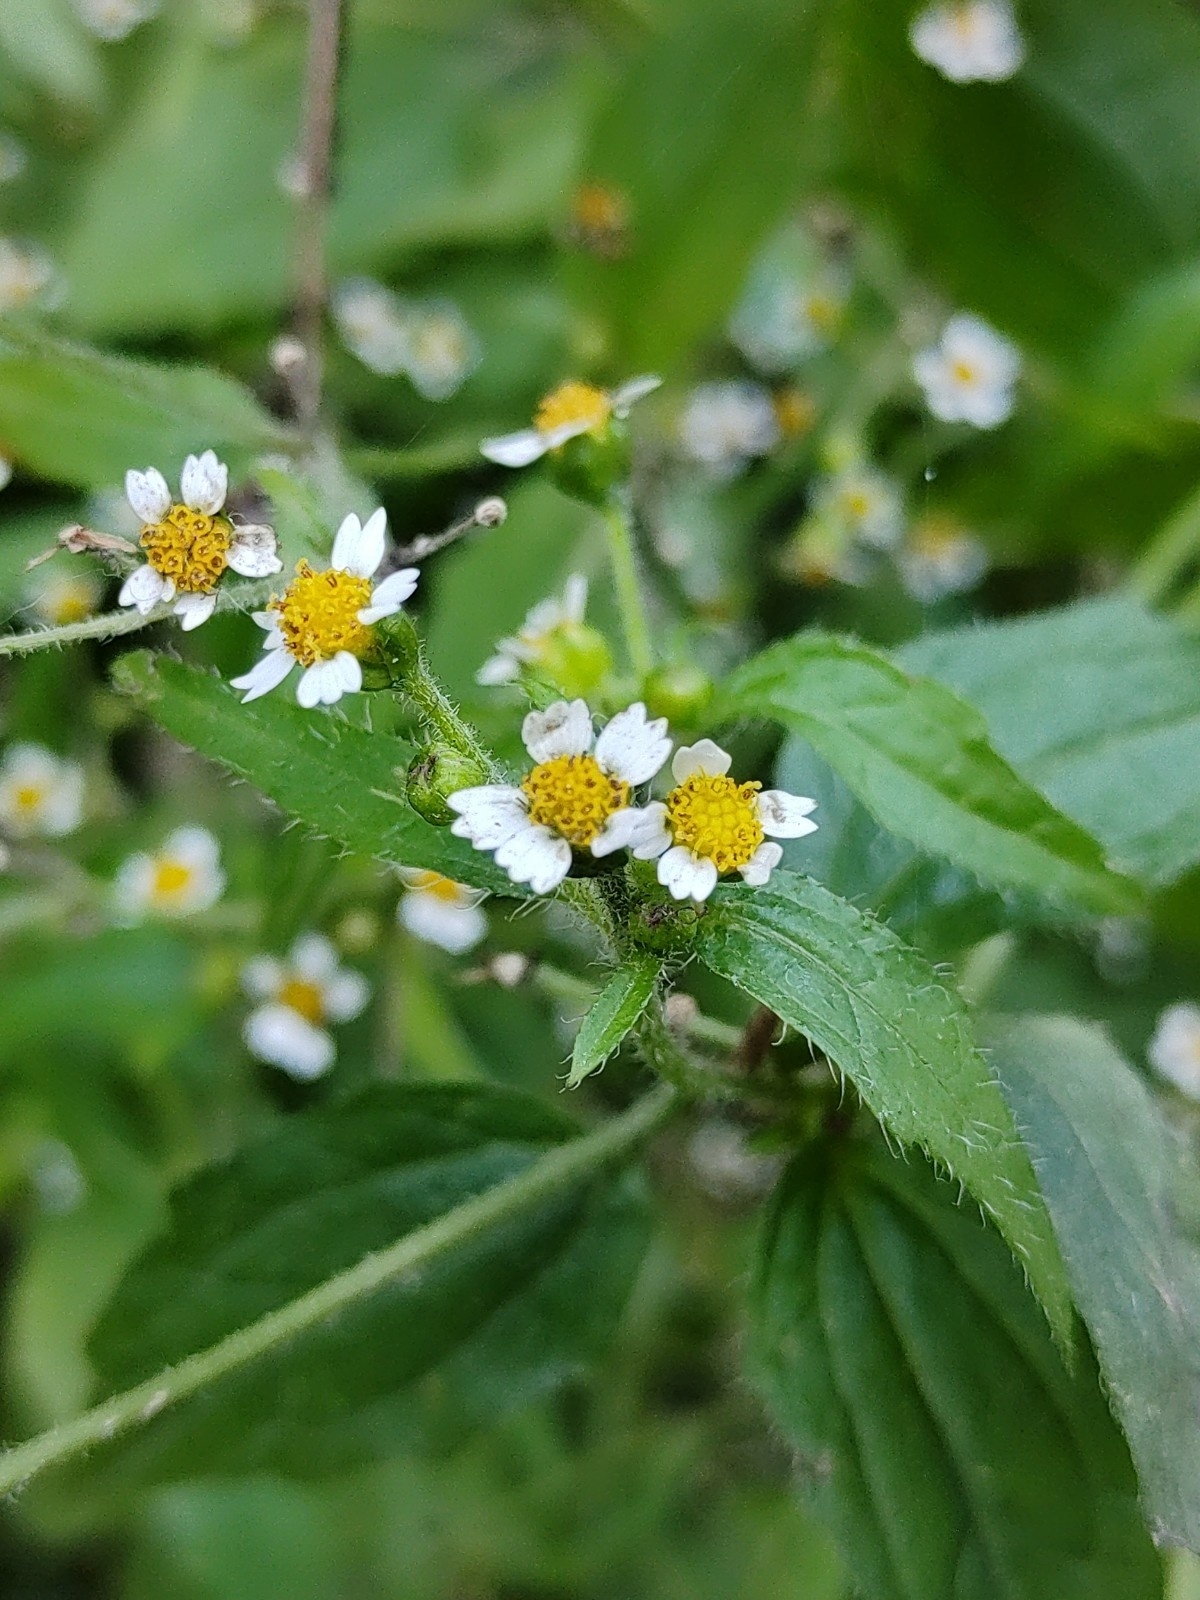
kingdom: Plantae
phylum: Tracheophyta
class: Magnoliopsida
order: Asterales
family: Asteraceae
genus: Galinsoga
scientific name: Galinsoga quadriradiata
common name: Shaggy soldier
